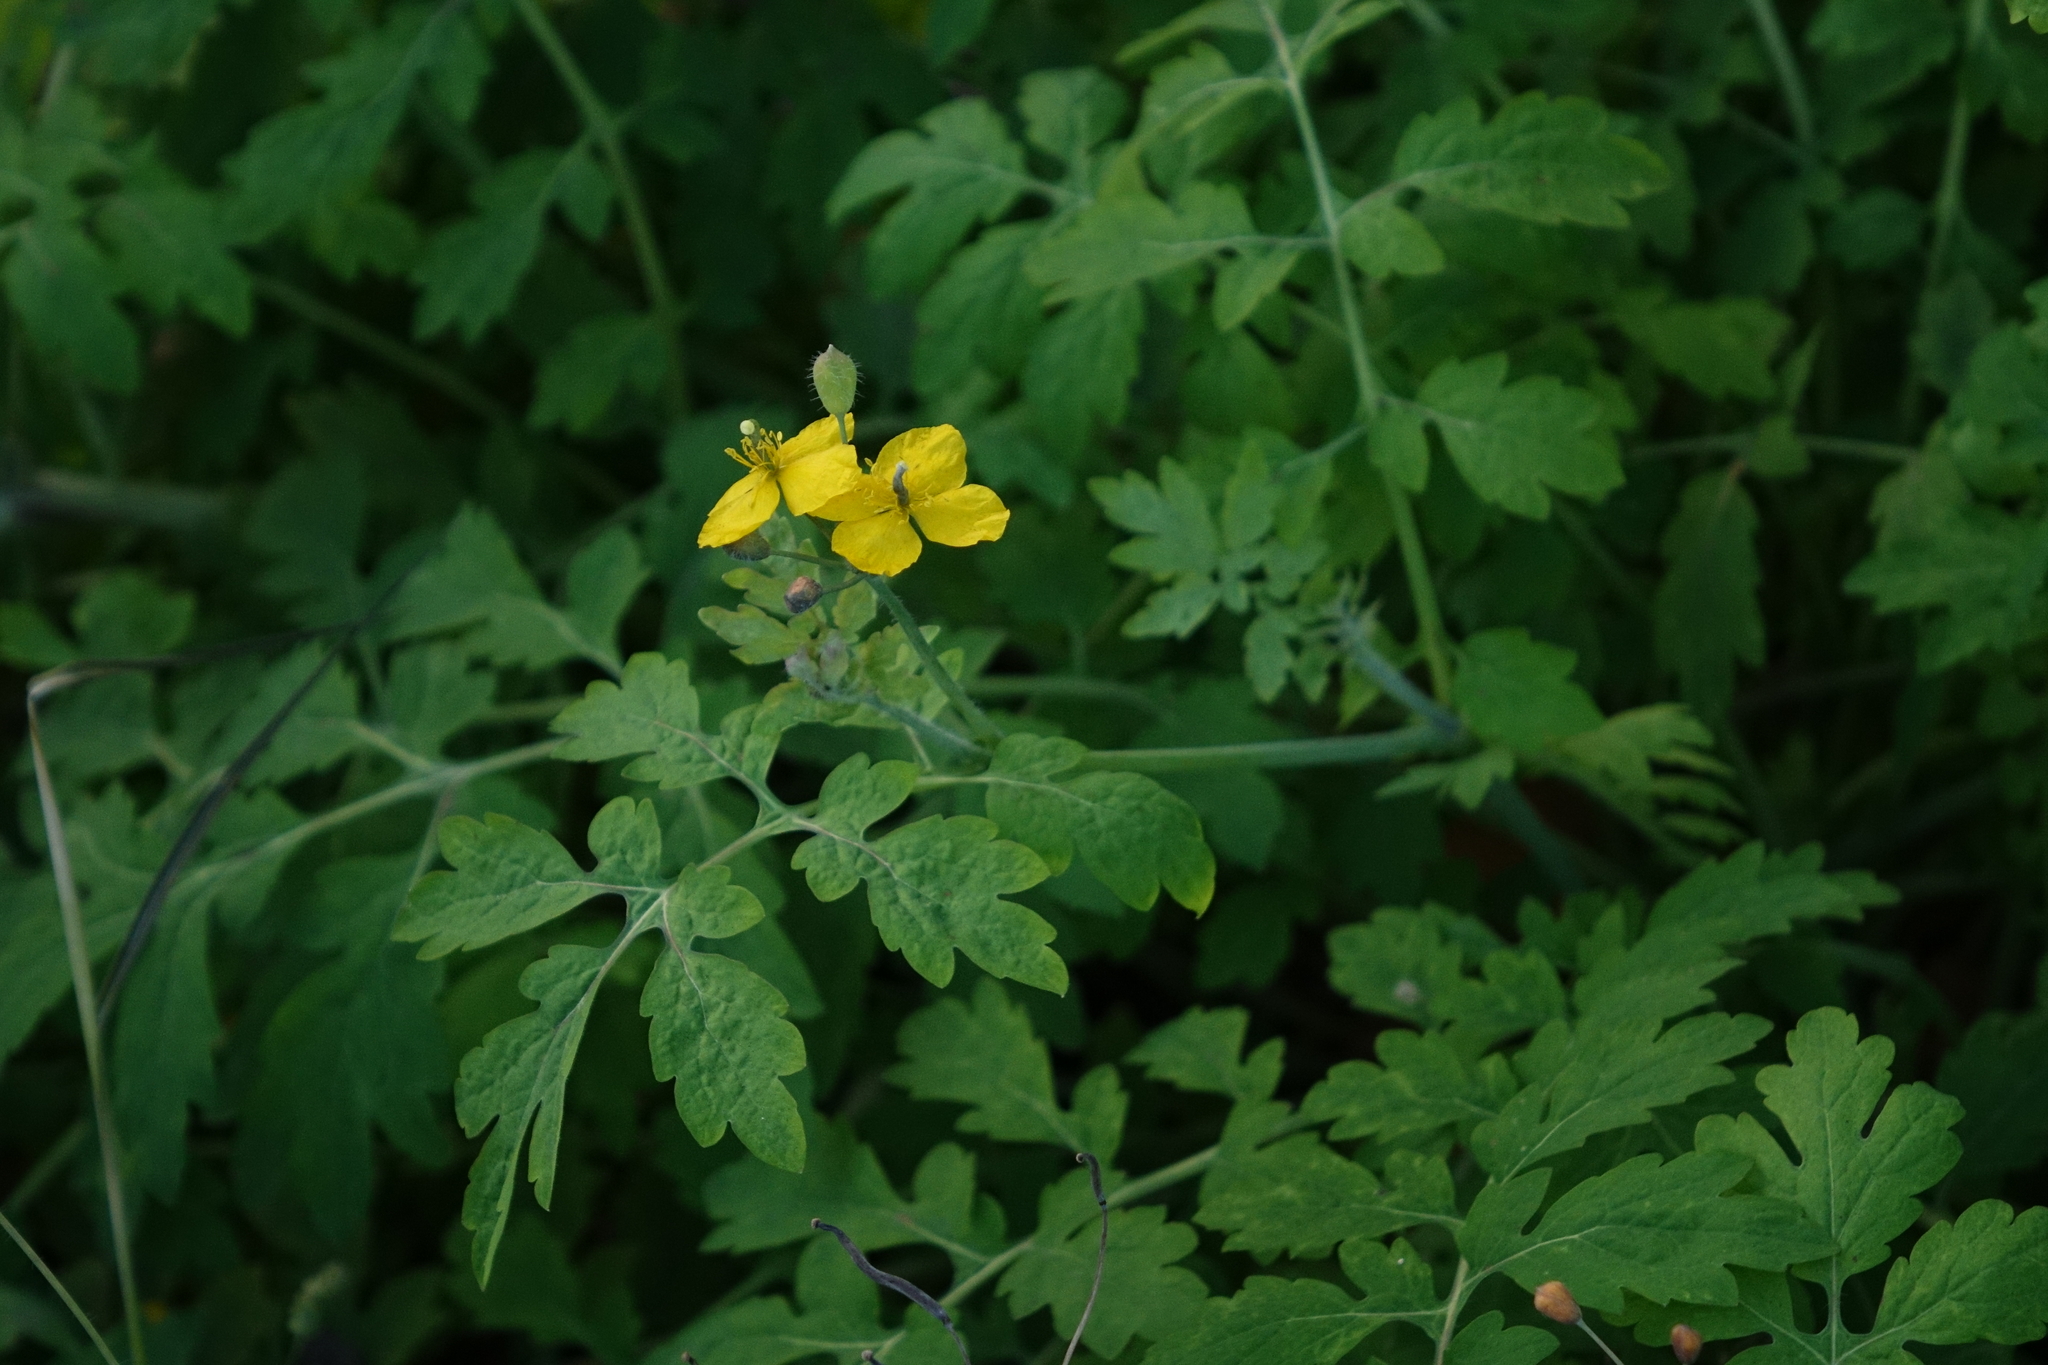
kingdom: Plantae
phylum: Tracheophyta
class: Magnoliopsida
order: Ranunculales
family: Papaveraceae
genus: Chelidonium
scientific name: Chelidonium majus
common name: Greater celandine
